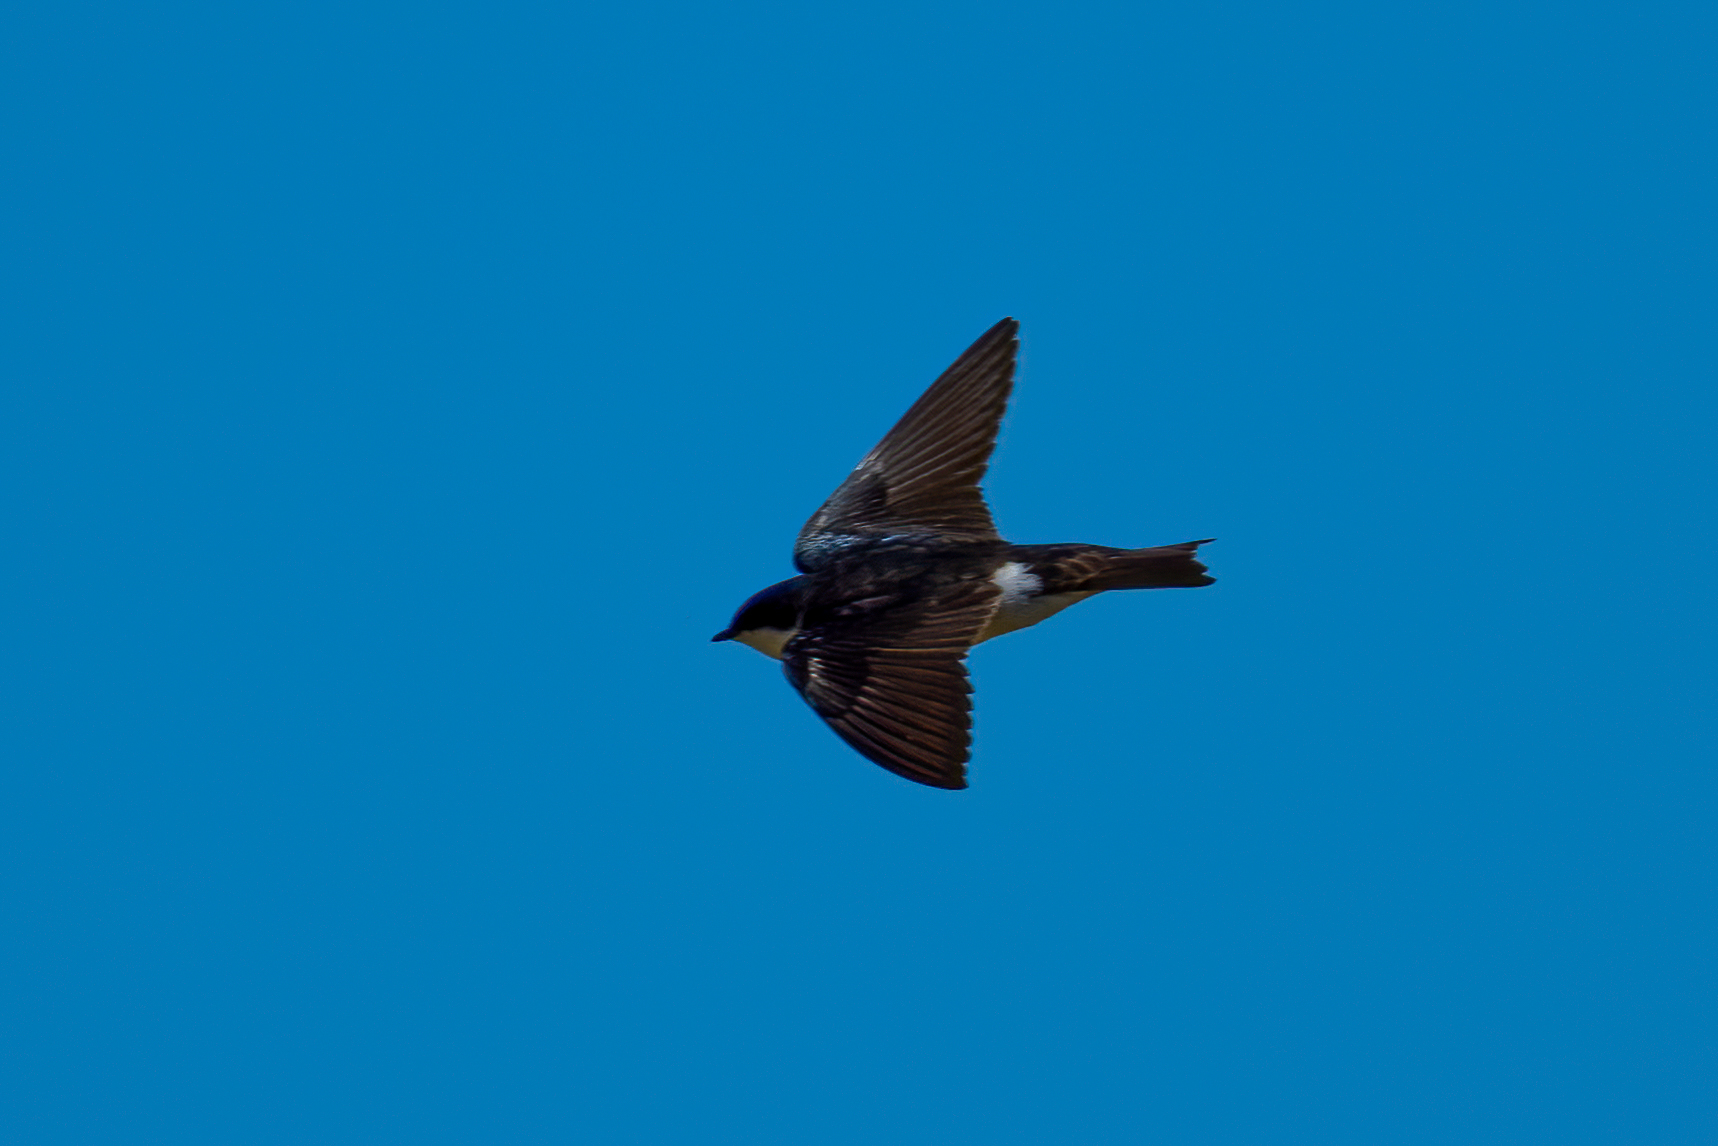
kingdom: Animalia
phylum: Chordata
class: Aves
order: Passeriformes
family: Hirundinidae
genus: Tachycineta
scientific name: Tachycineta bicolor
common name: Tree swallow
